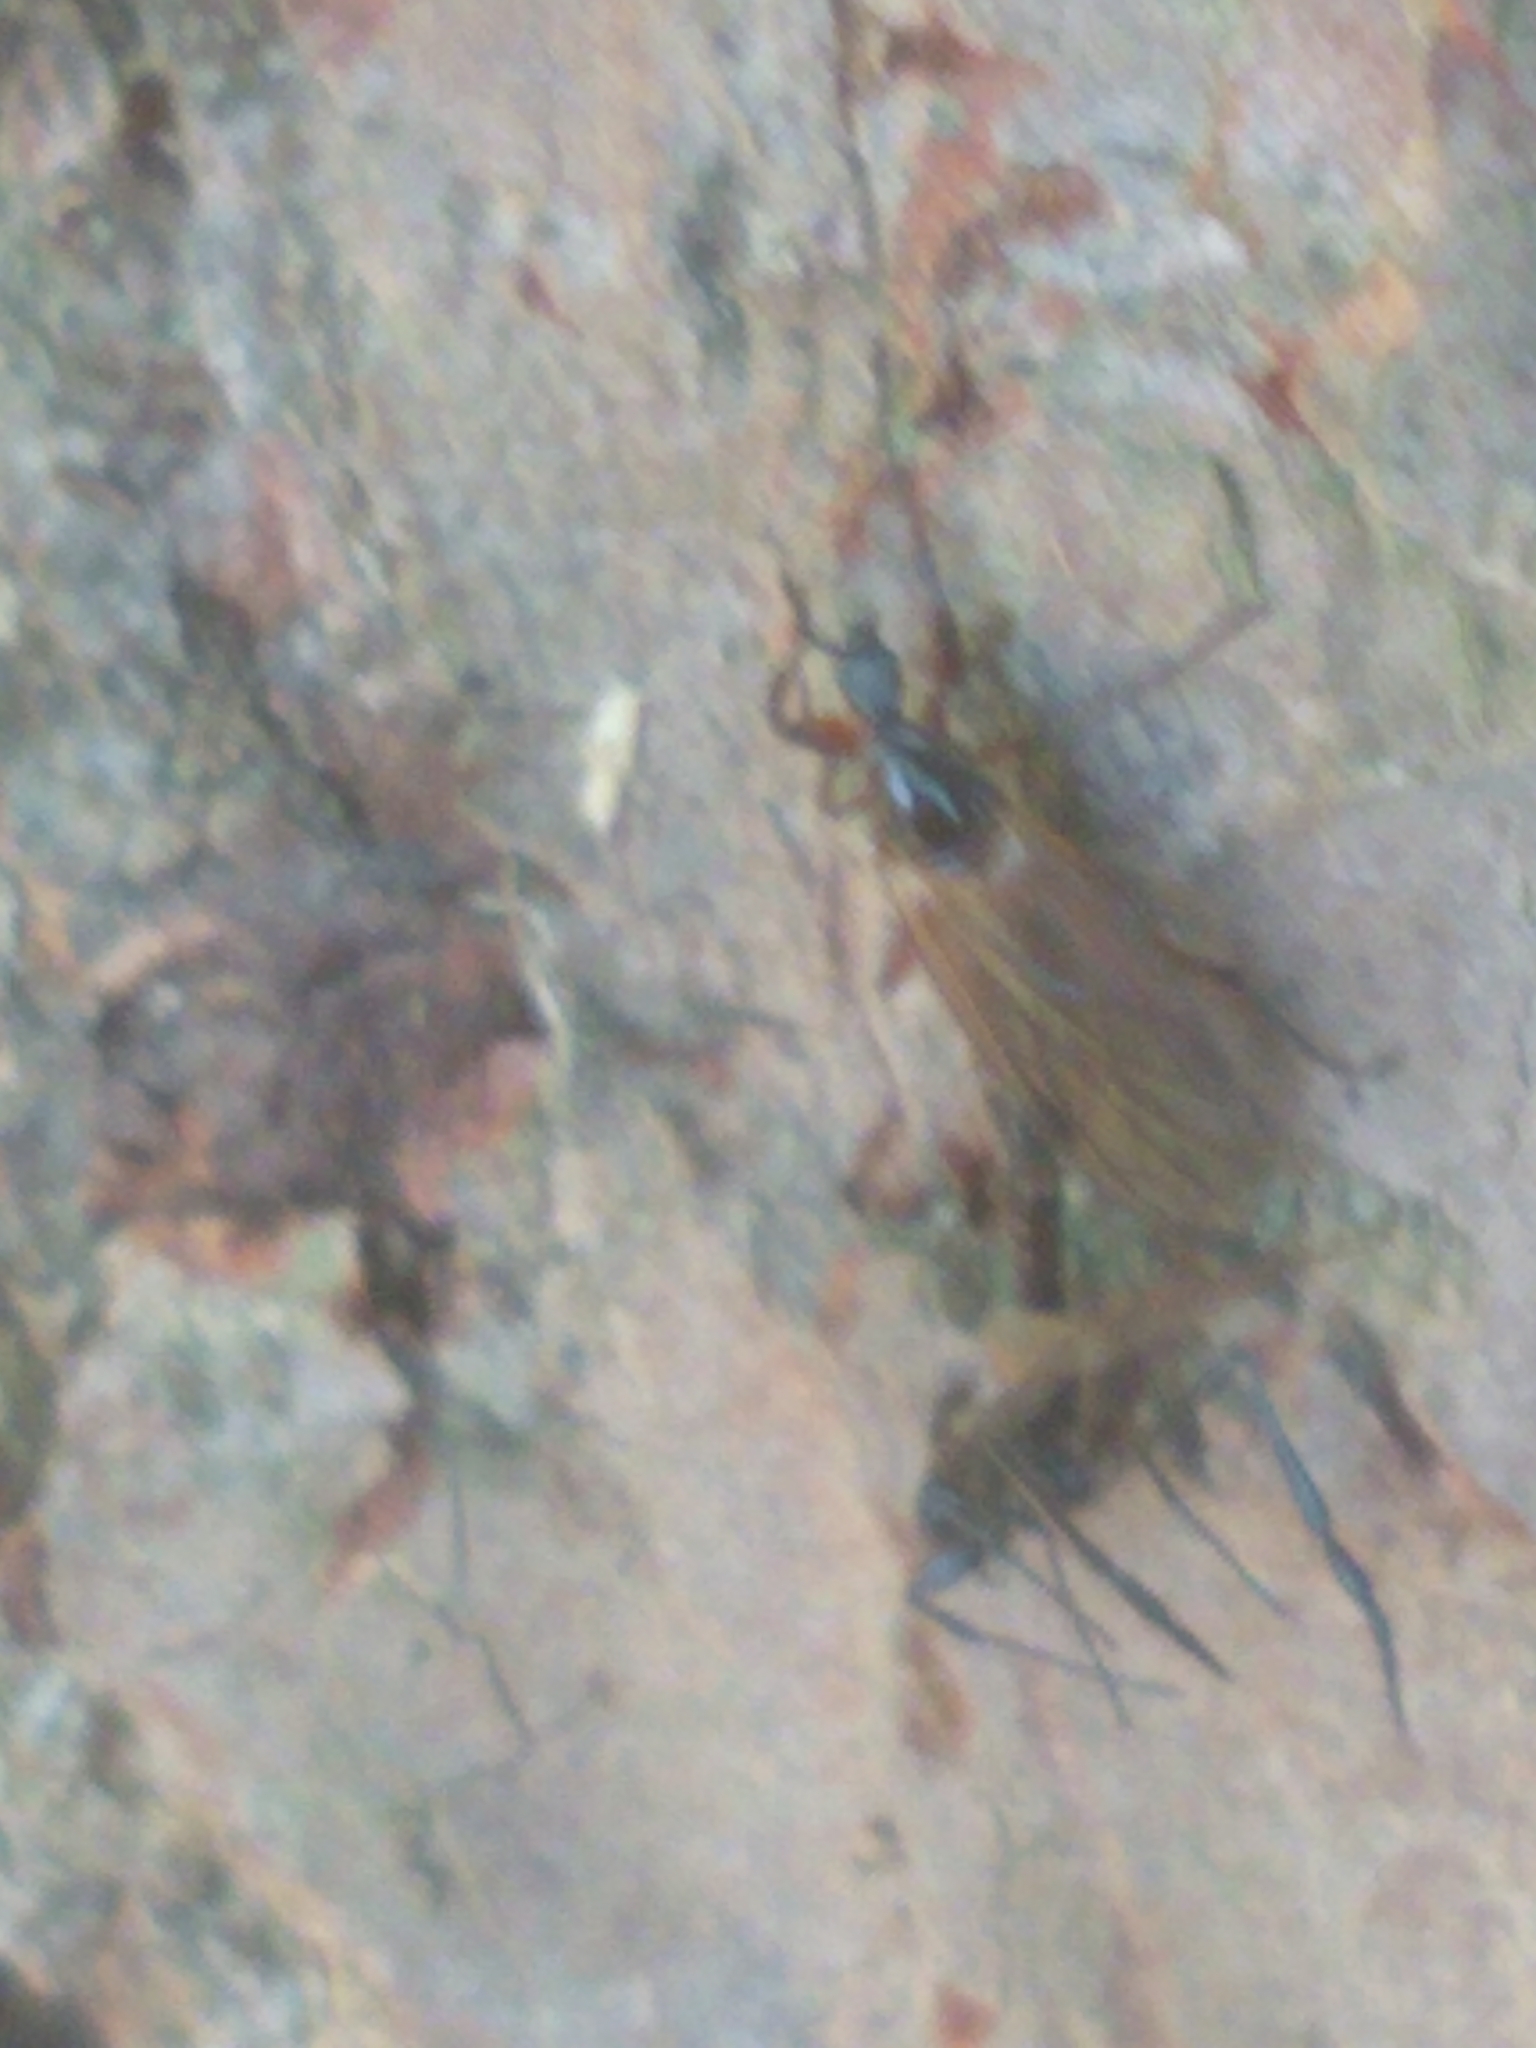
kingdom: Animalia
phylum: Arthropoda
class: Insecta
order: Diptera
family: Bibionidae
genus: Bibio
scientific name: Bibio slossonae
